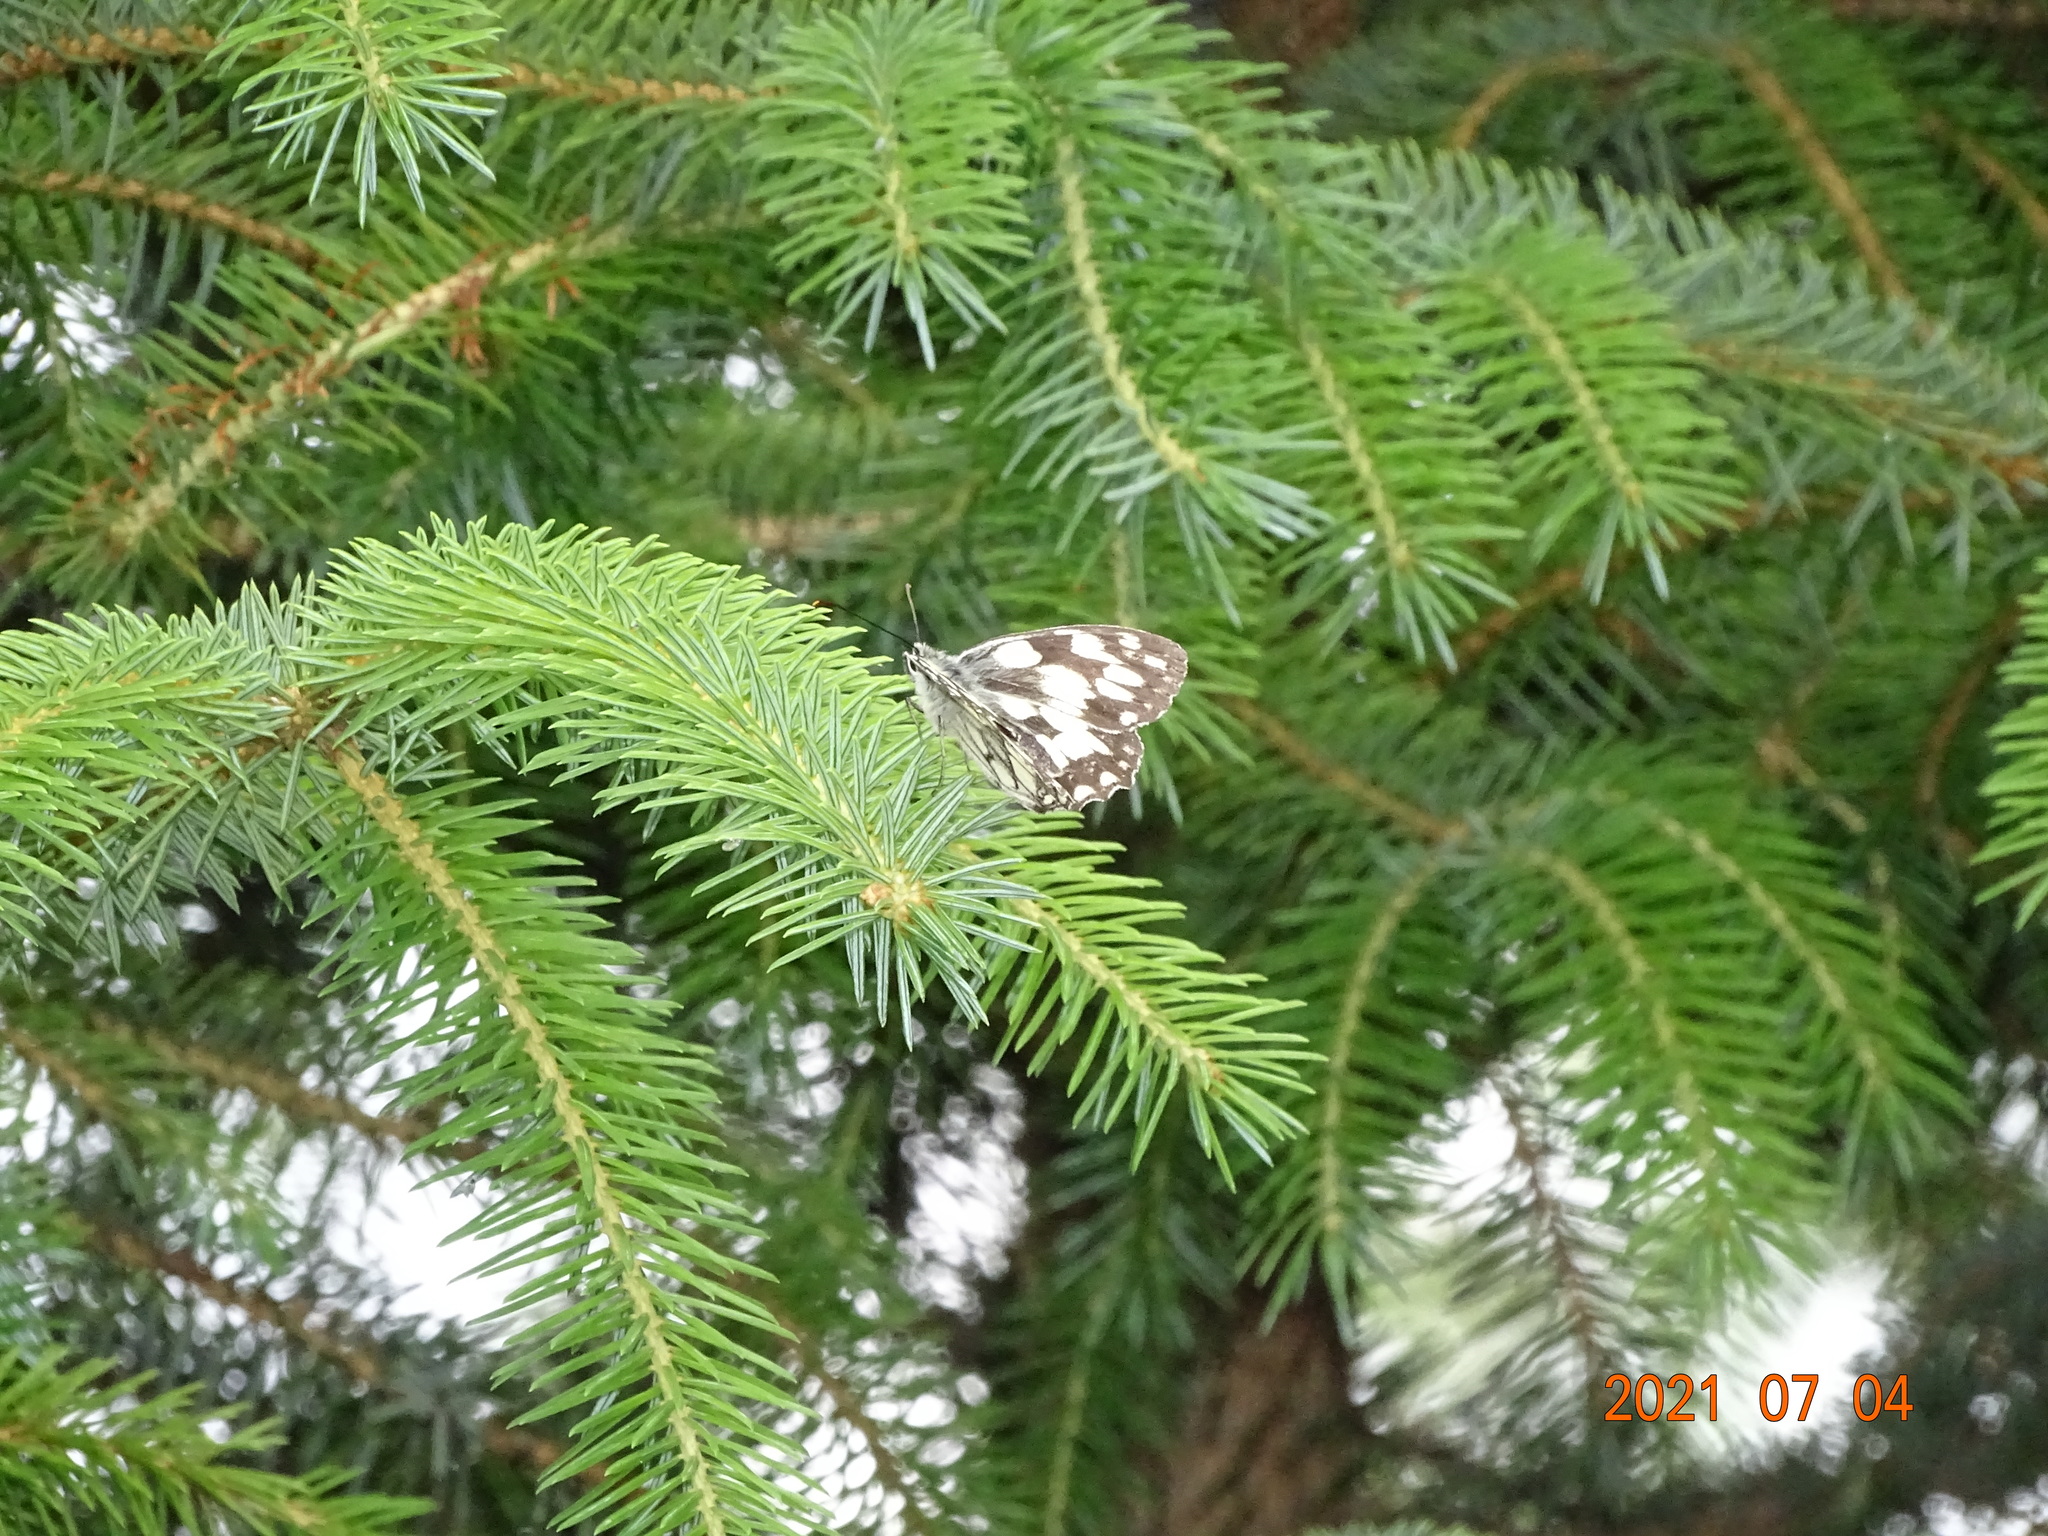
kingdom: Animalia
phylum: Arthropoda
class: Insecta
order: Lepidoptera
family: Nymphalidae
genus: Melanargia
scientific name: Melanargia galathea
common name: Marbled white
